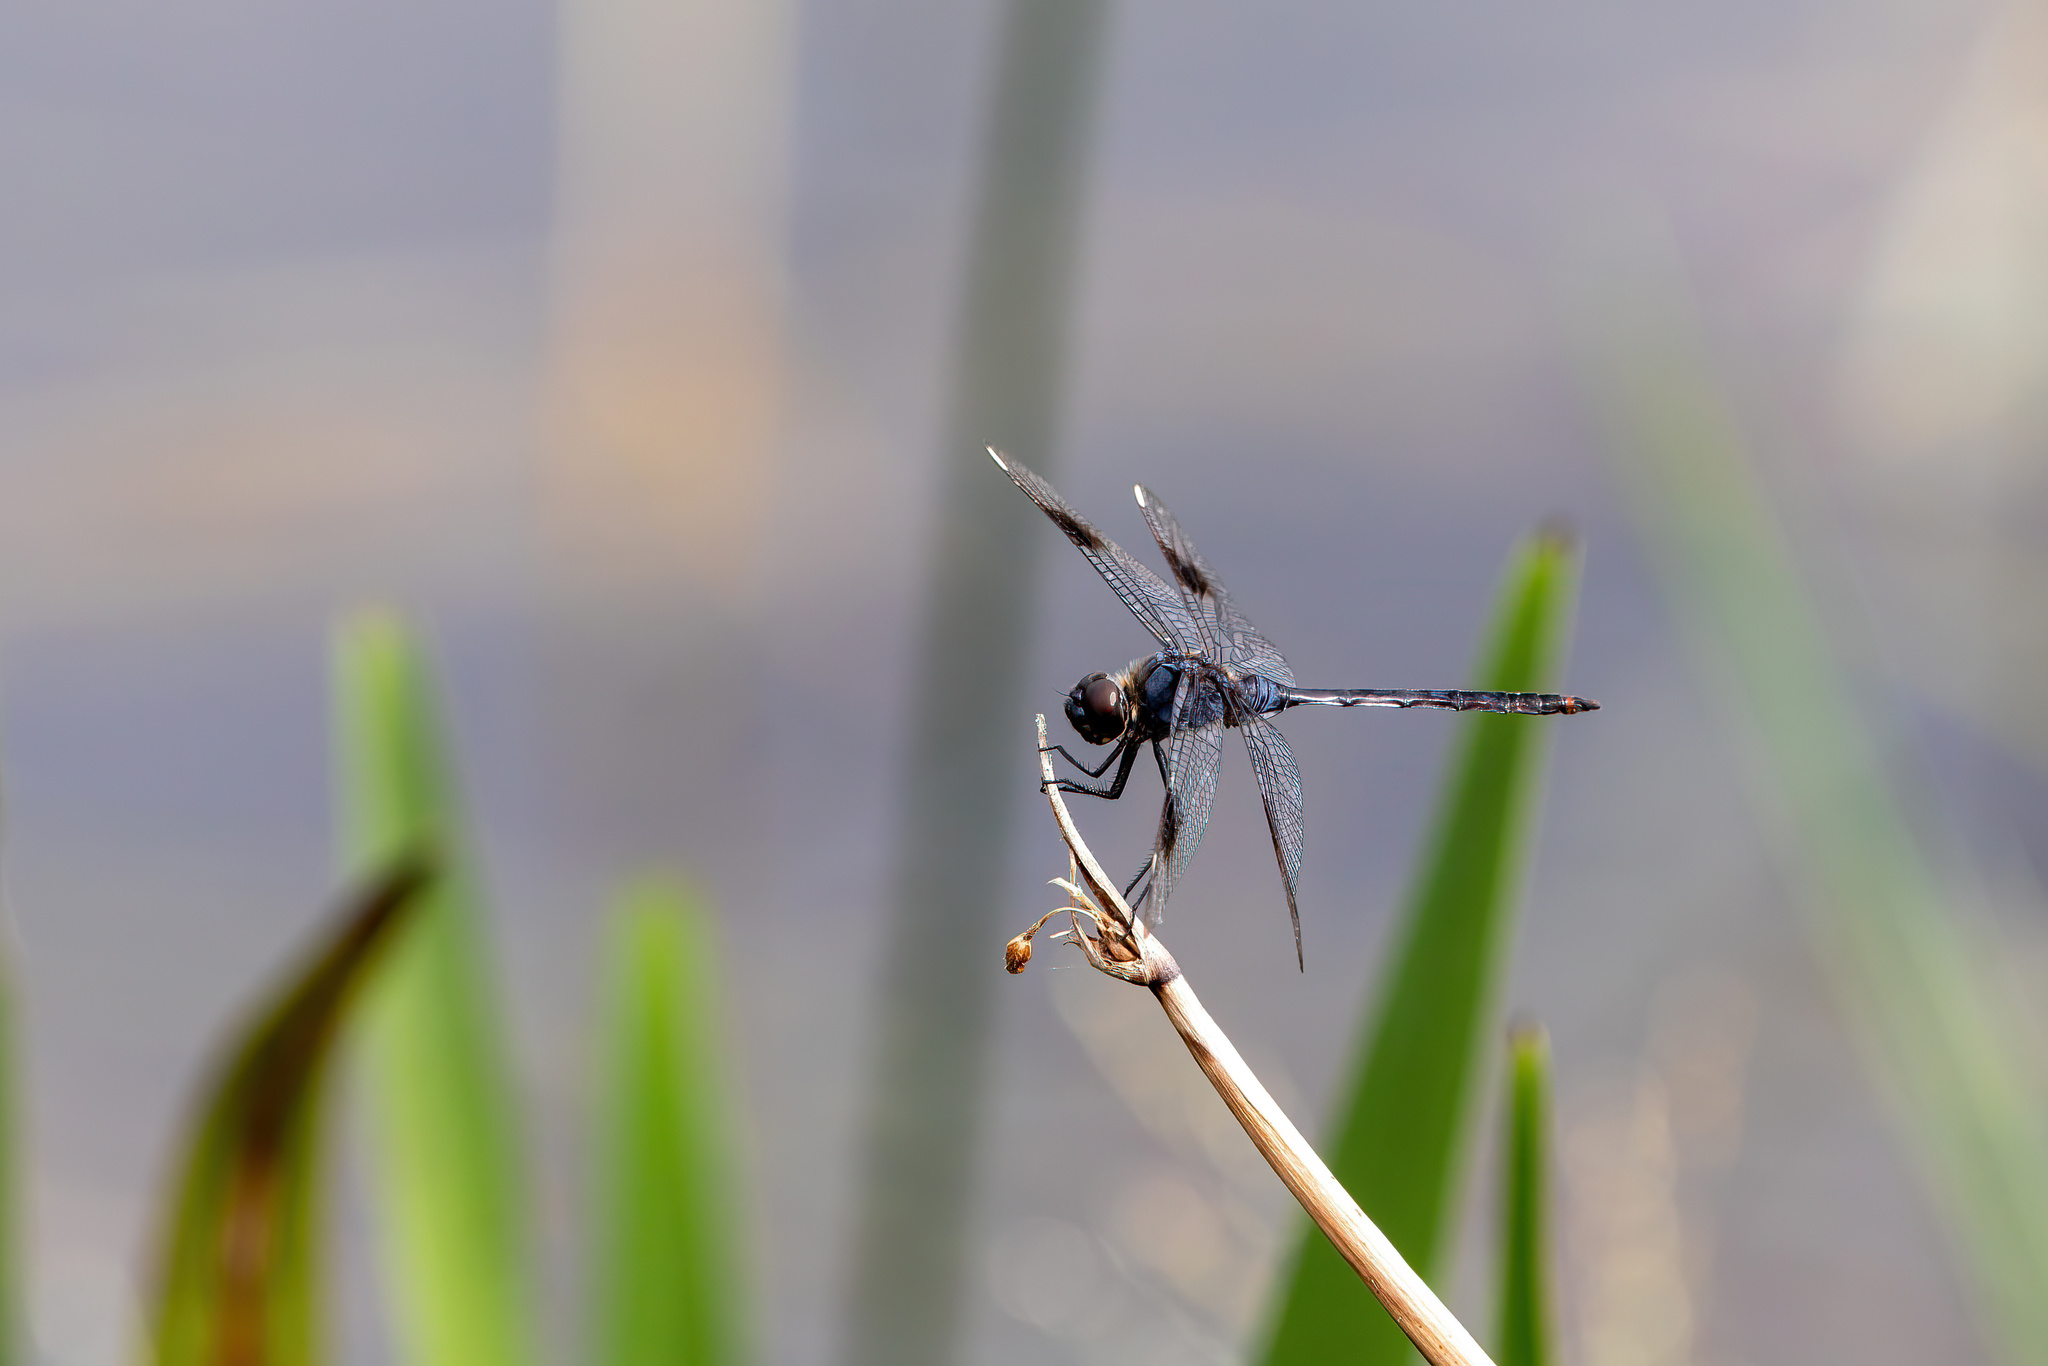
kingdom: Animalia
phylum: Arthropoda
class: Insecta
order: Odonata
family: Libellulidae
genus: Brachymesia
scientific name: Brachymesia gravida
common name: Four-spotted pennant
